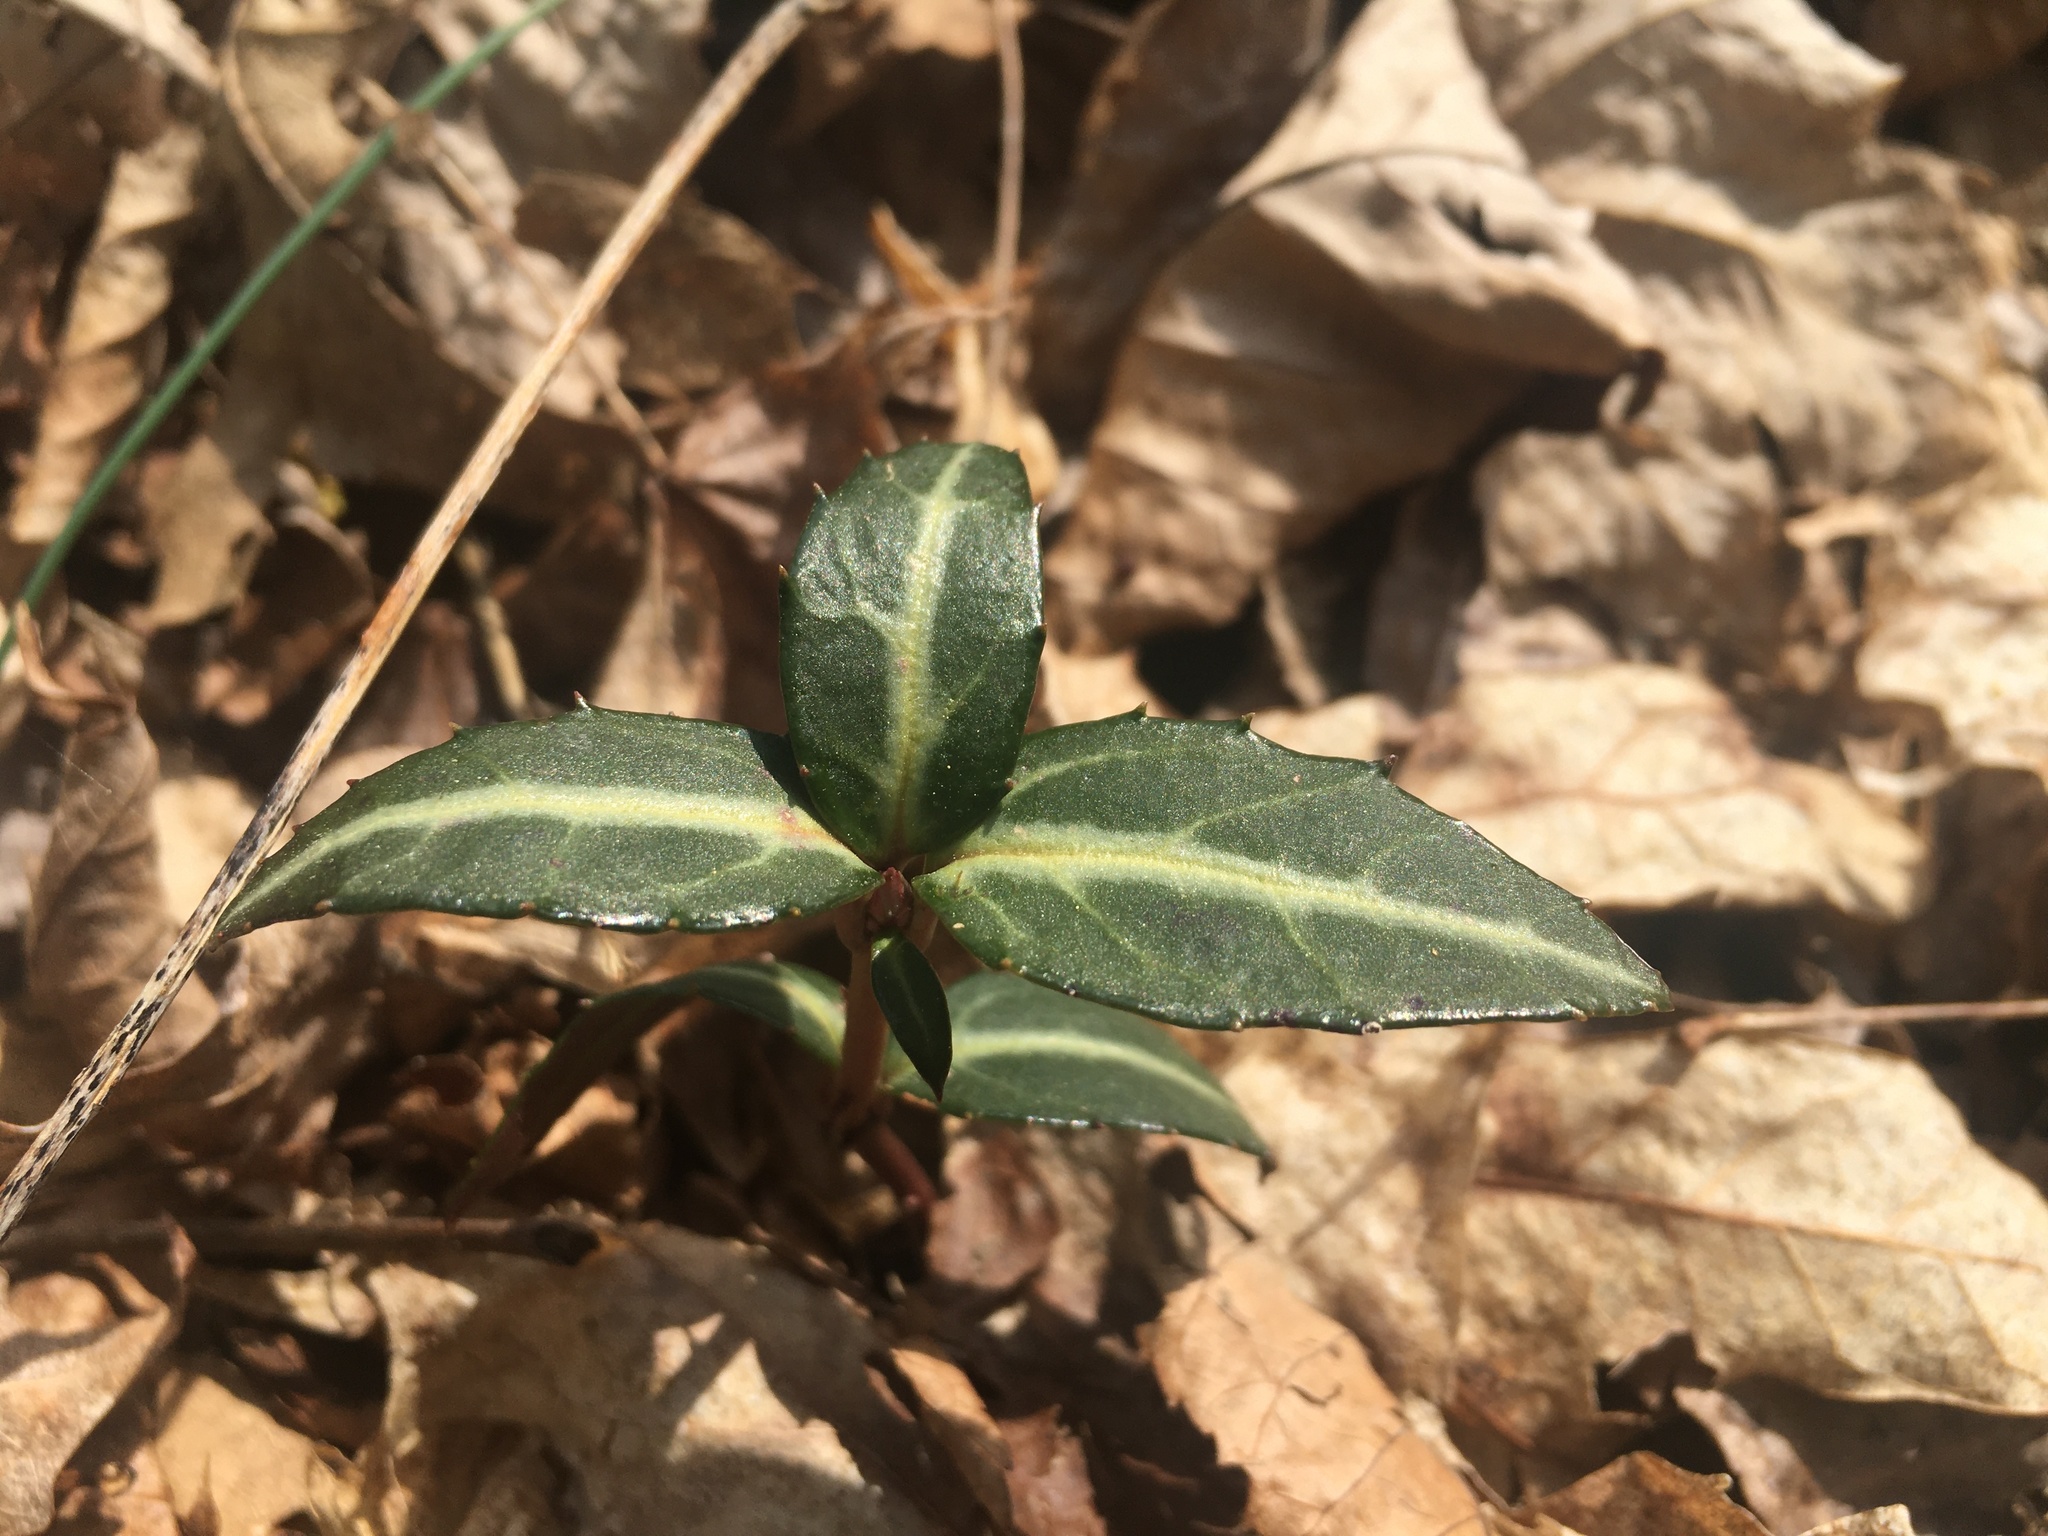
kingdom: Plantae
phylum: Tracheophyta
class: Magnoliopsida
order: Ericales
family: Ericaceae
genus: Chimaphila
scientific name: Chimaphila maculata
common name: Spotted pipsissewa
